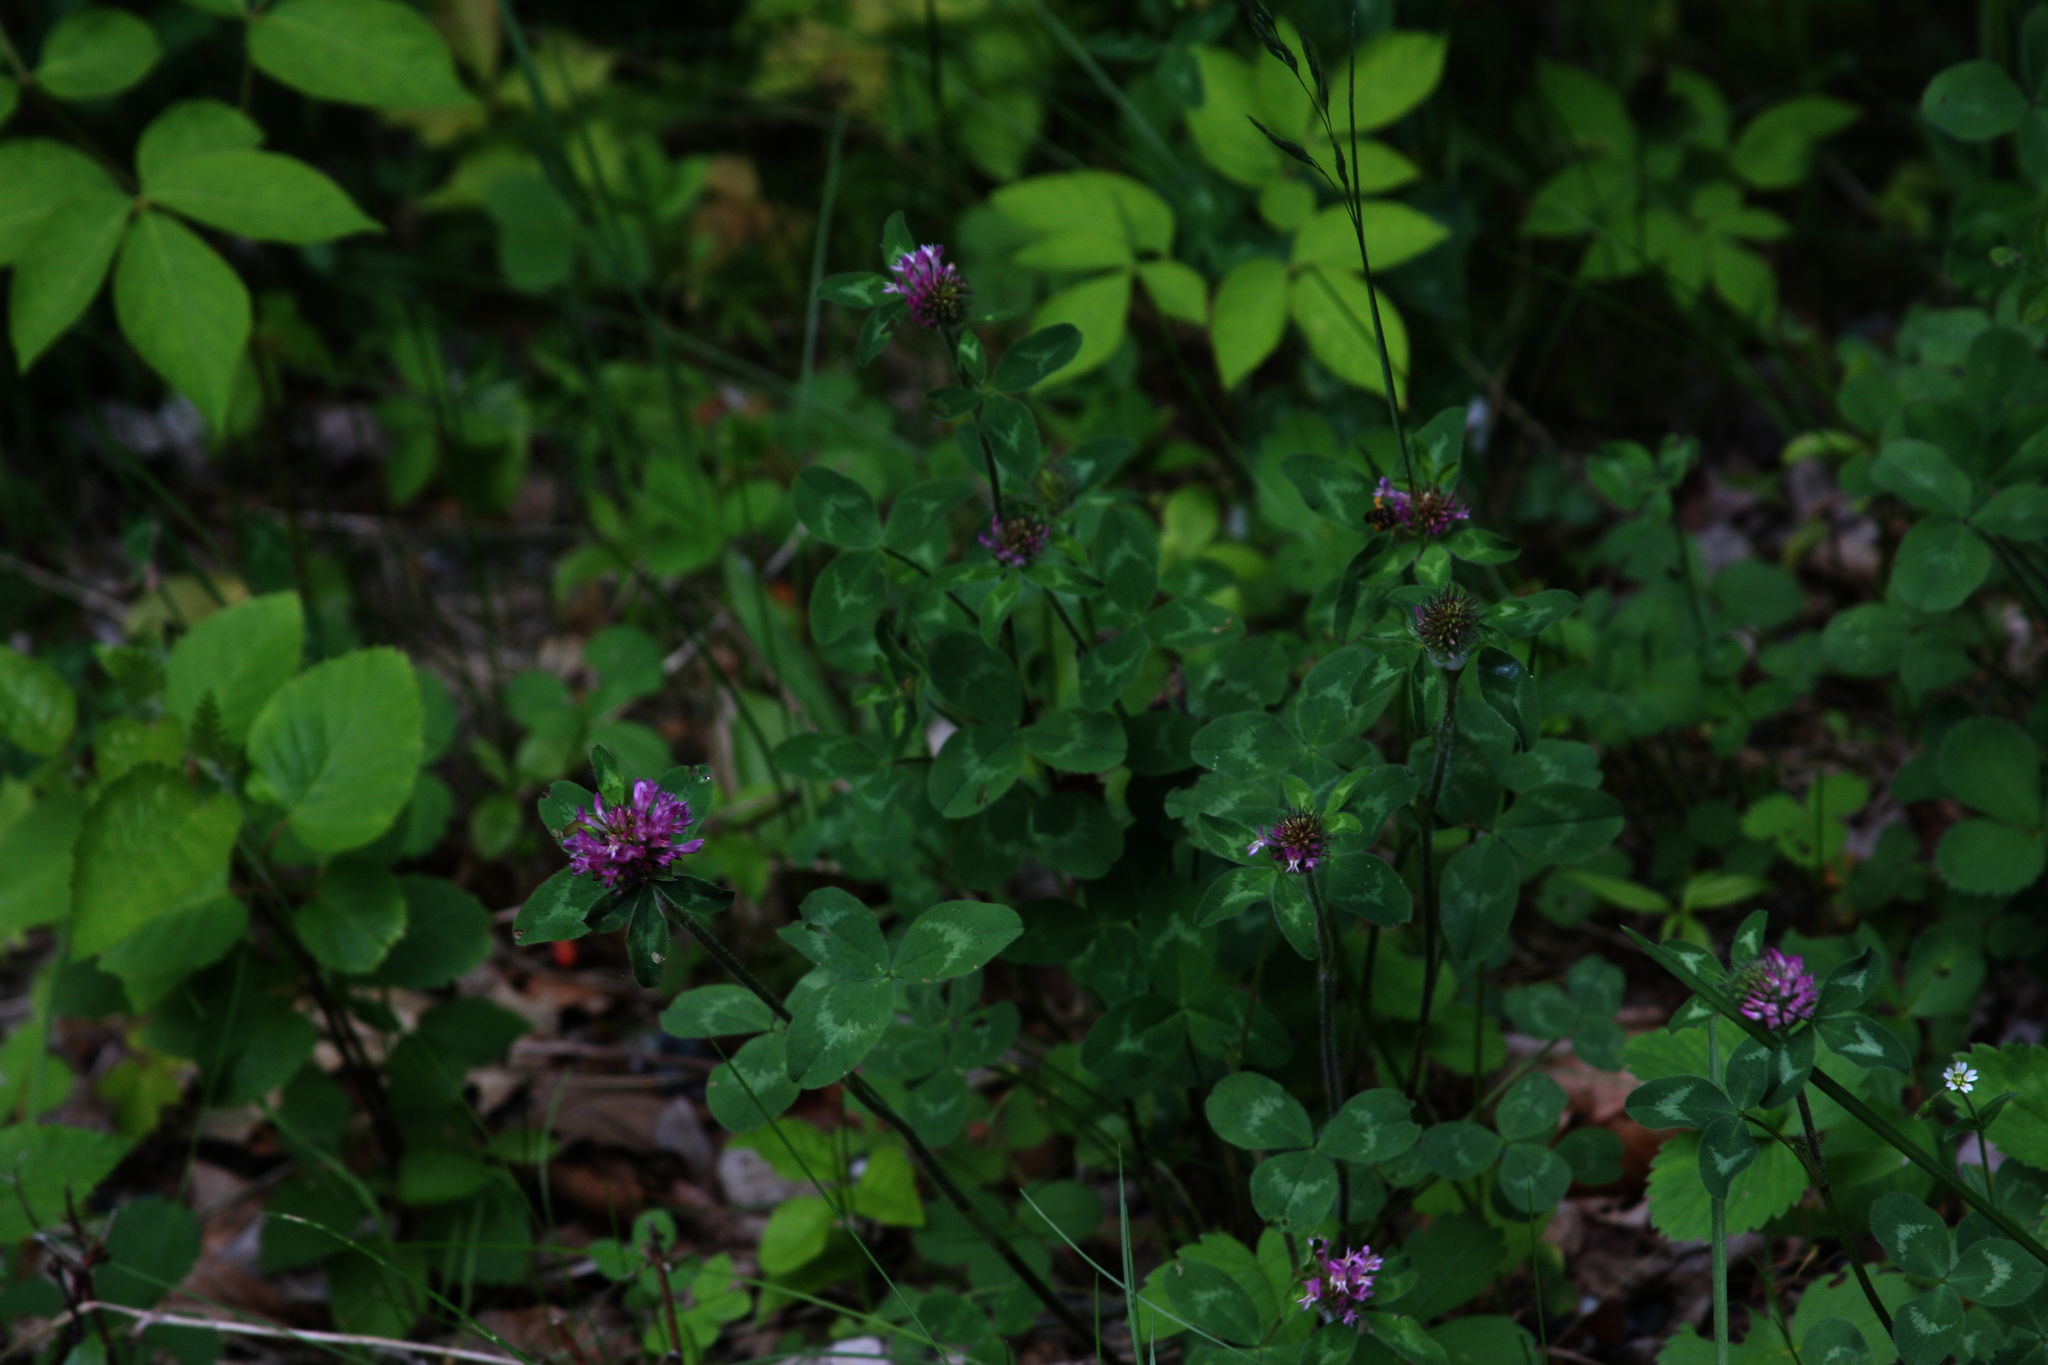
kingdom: Plantae
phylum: Tracheophyta
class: Magnoliopsida
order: Fabales
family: Fabaceae
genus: Trifolium
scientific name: Trifolium pratense
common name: Red clover
